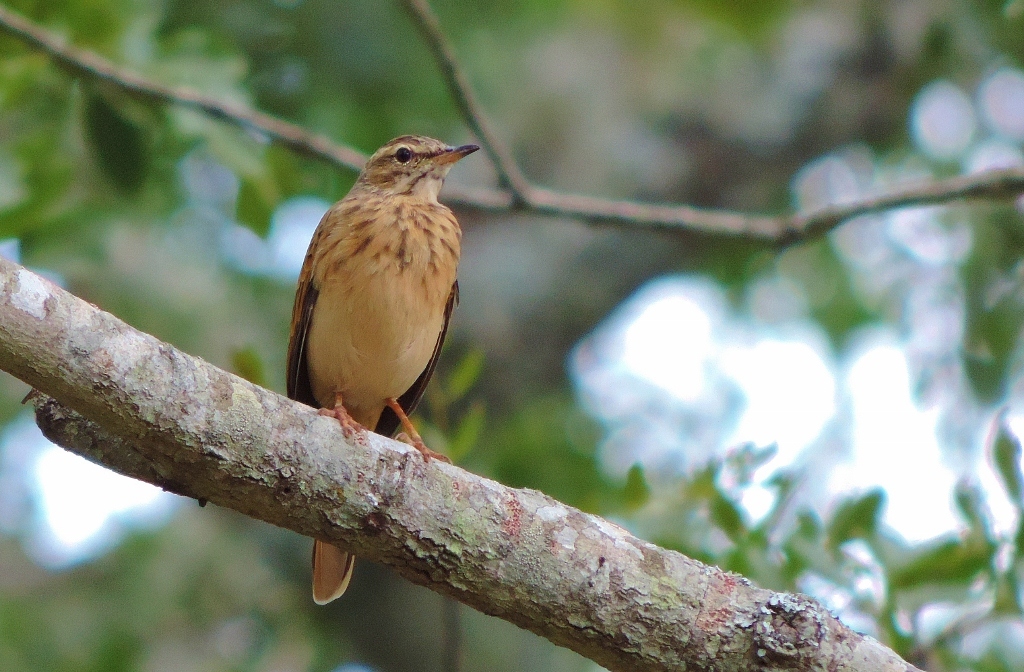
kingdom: Animalia
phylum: Chordata
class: Aves
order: Passeriformes
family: Motacillidae
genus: Anthus
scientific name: Anthus nyassae
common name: Wood pipit
